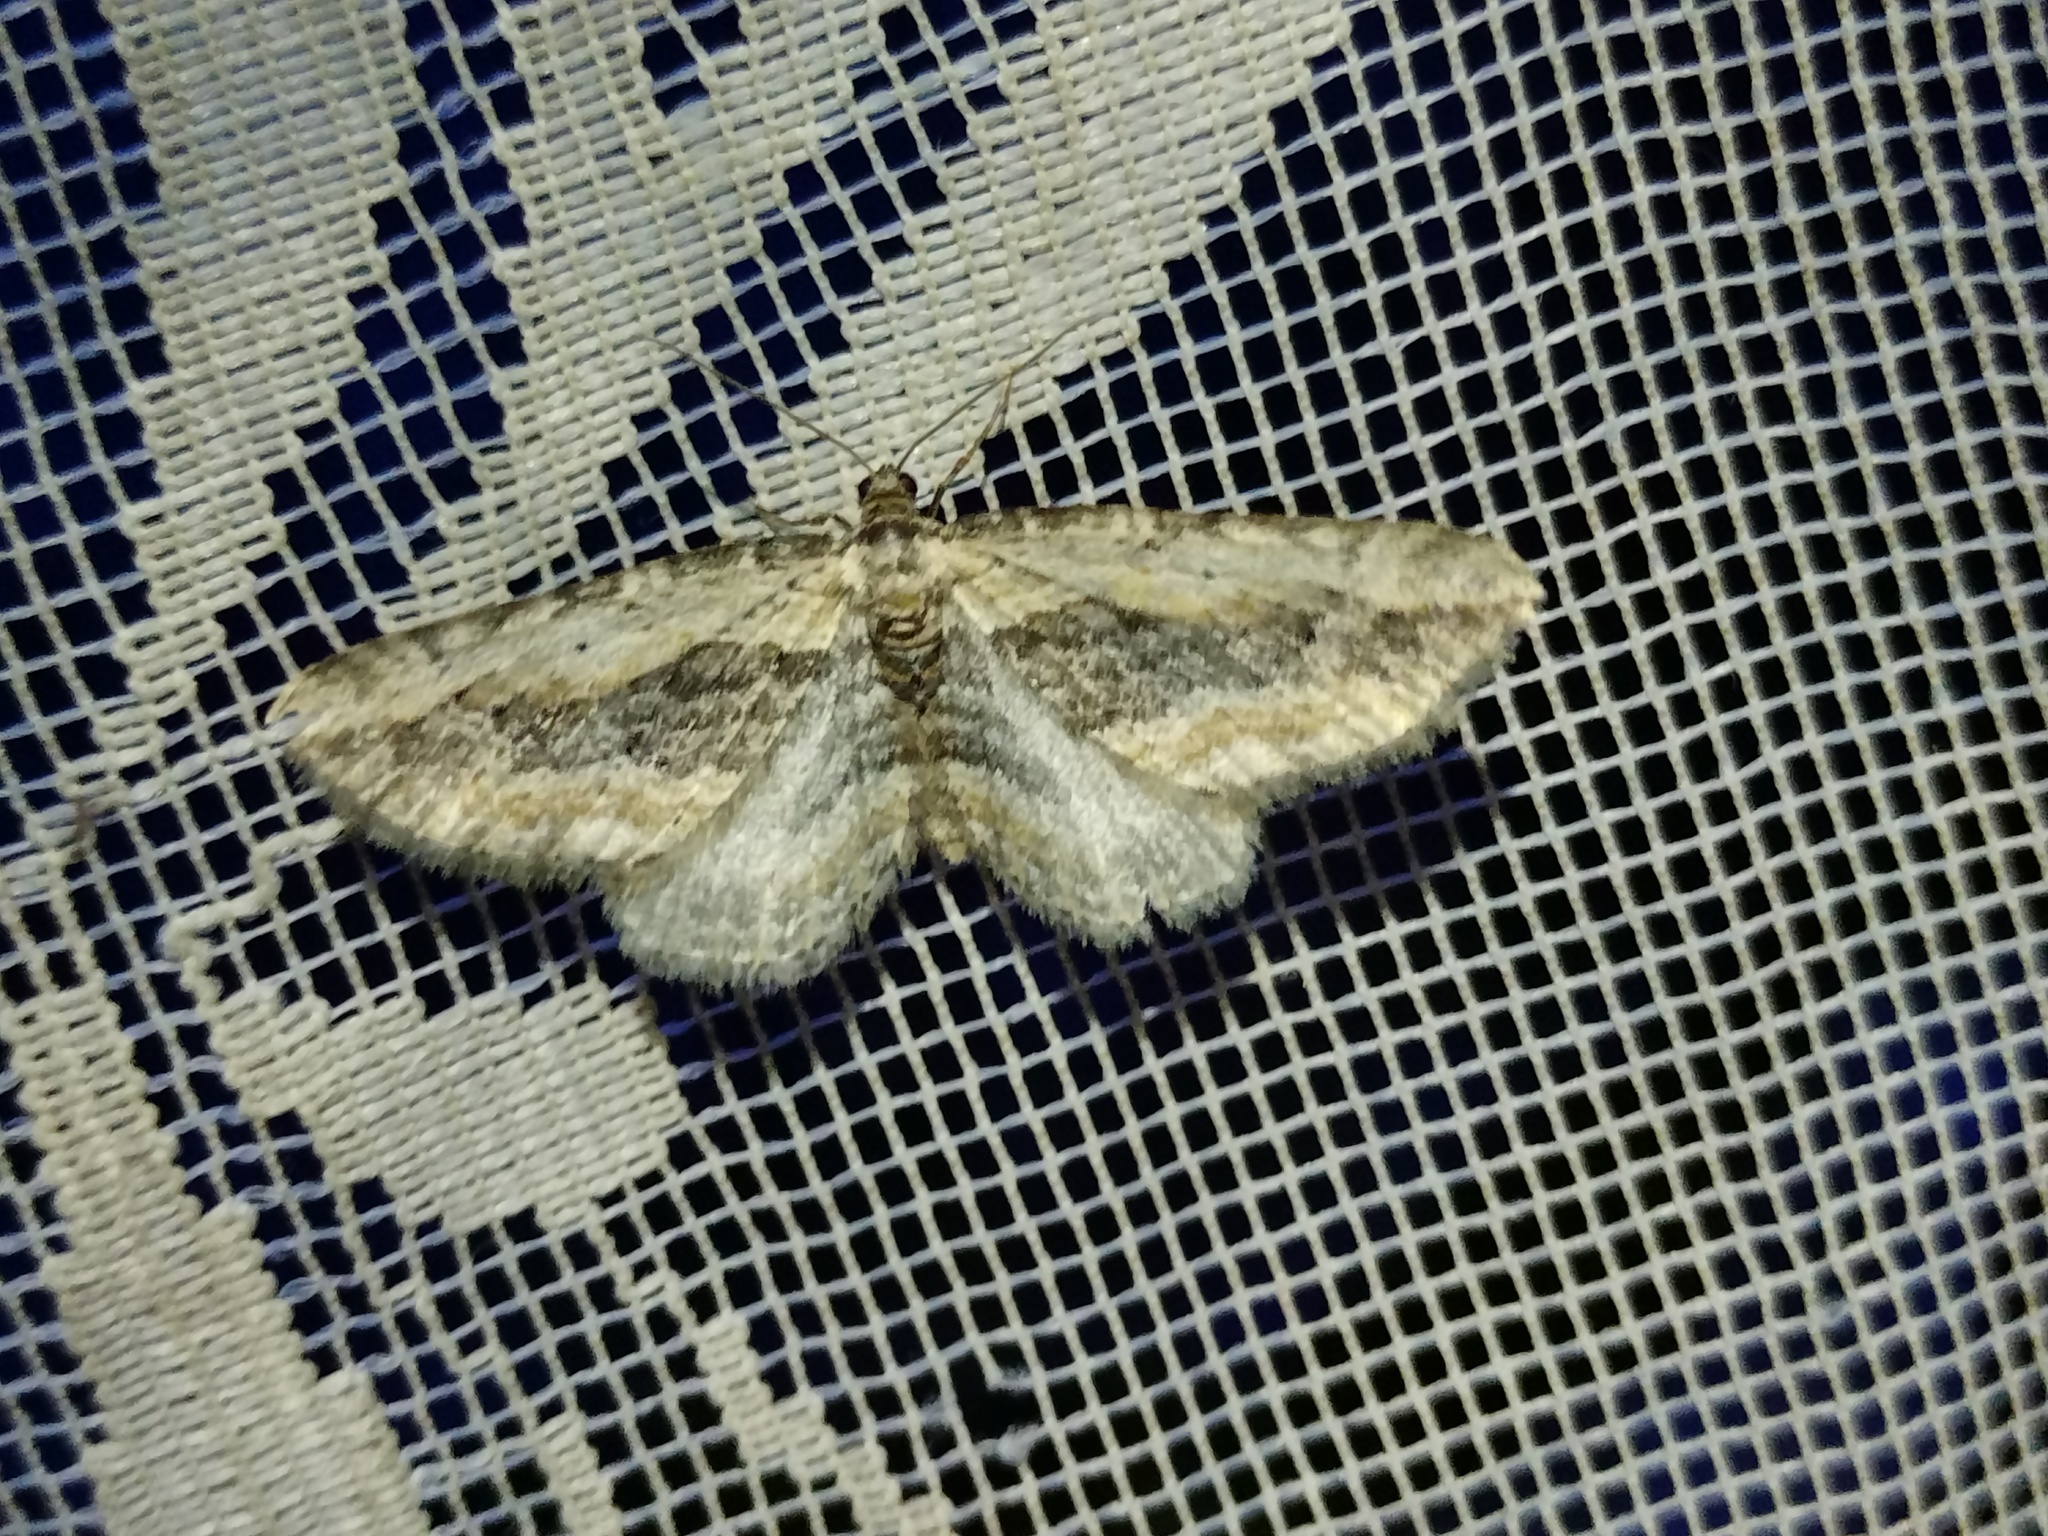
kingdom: Animalia
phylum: Arthropoda
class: Insecta
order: Lepidoptera
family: Geometridae
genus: Horisme
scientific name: Horisme vitalbata
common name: Small waved umber
